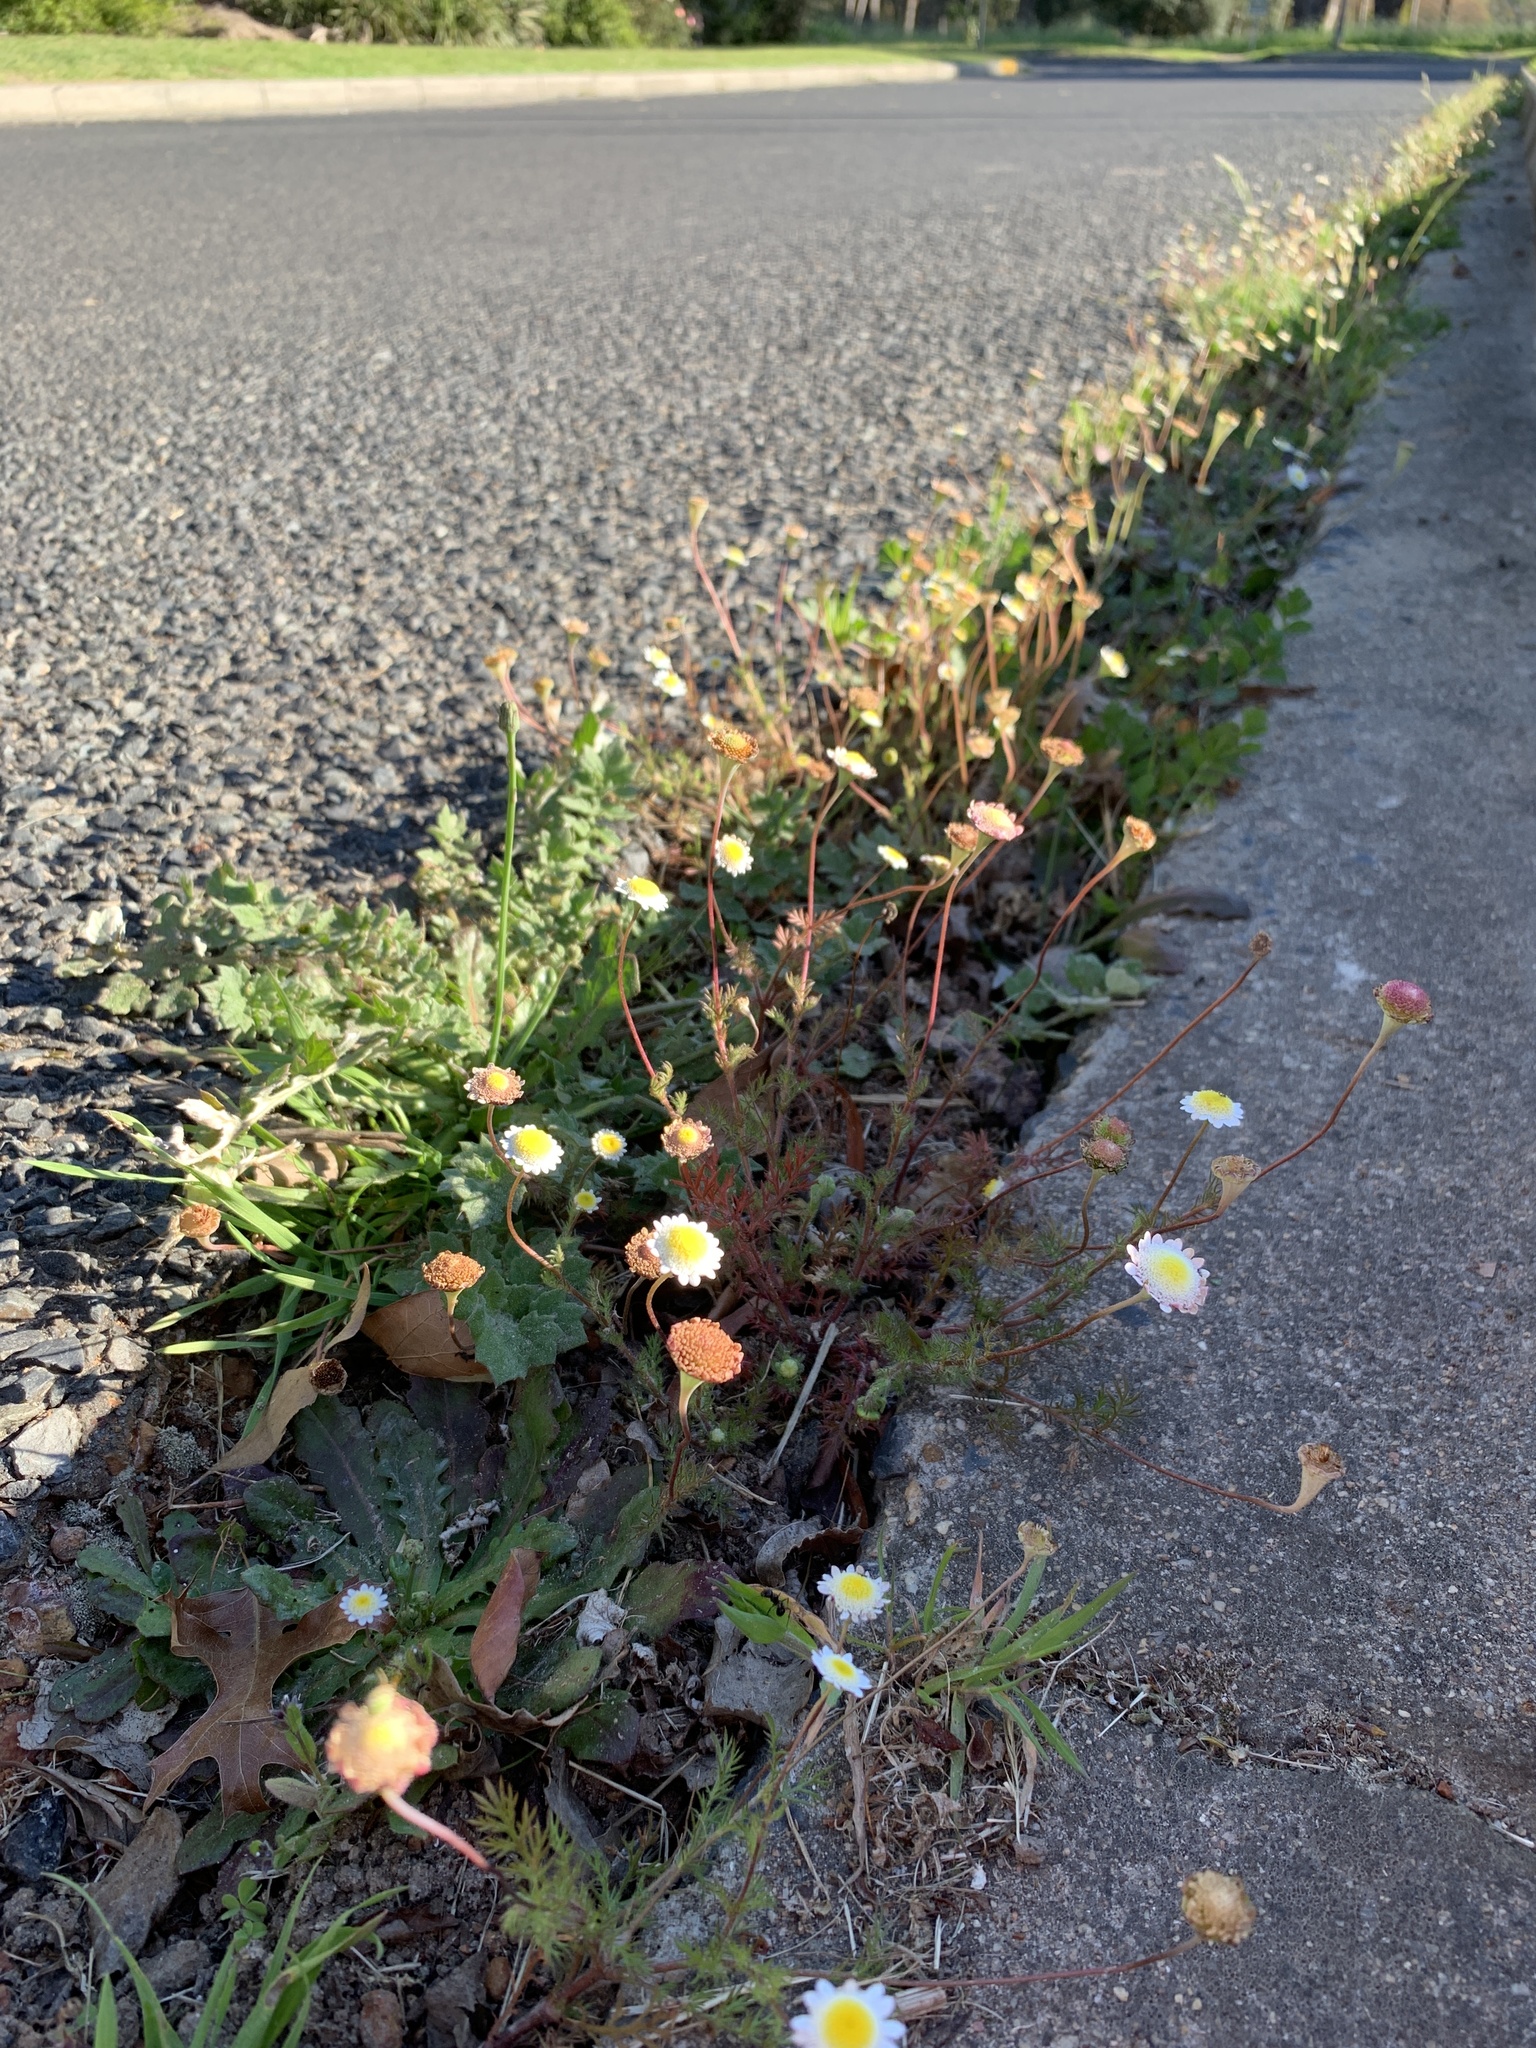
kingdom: Plantae
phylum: Tracheophyta
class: Magnoliopsida
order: Asterales
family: Asteraceae
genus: Cotula
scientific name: Cotula turbinata
